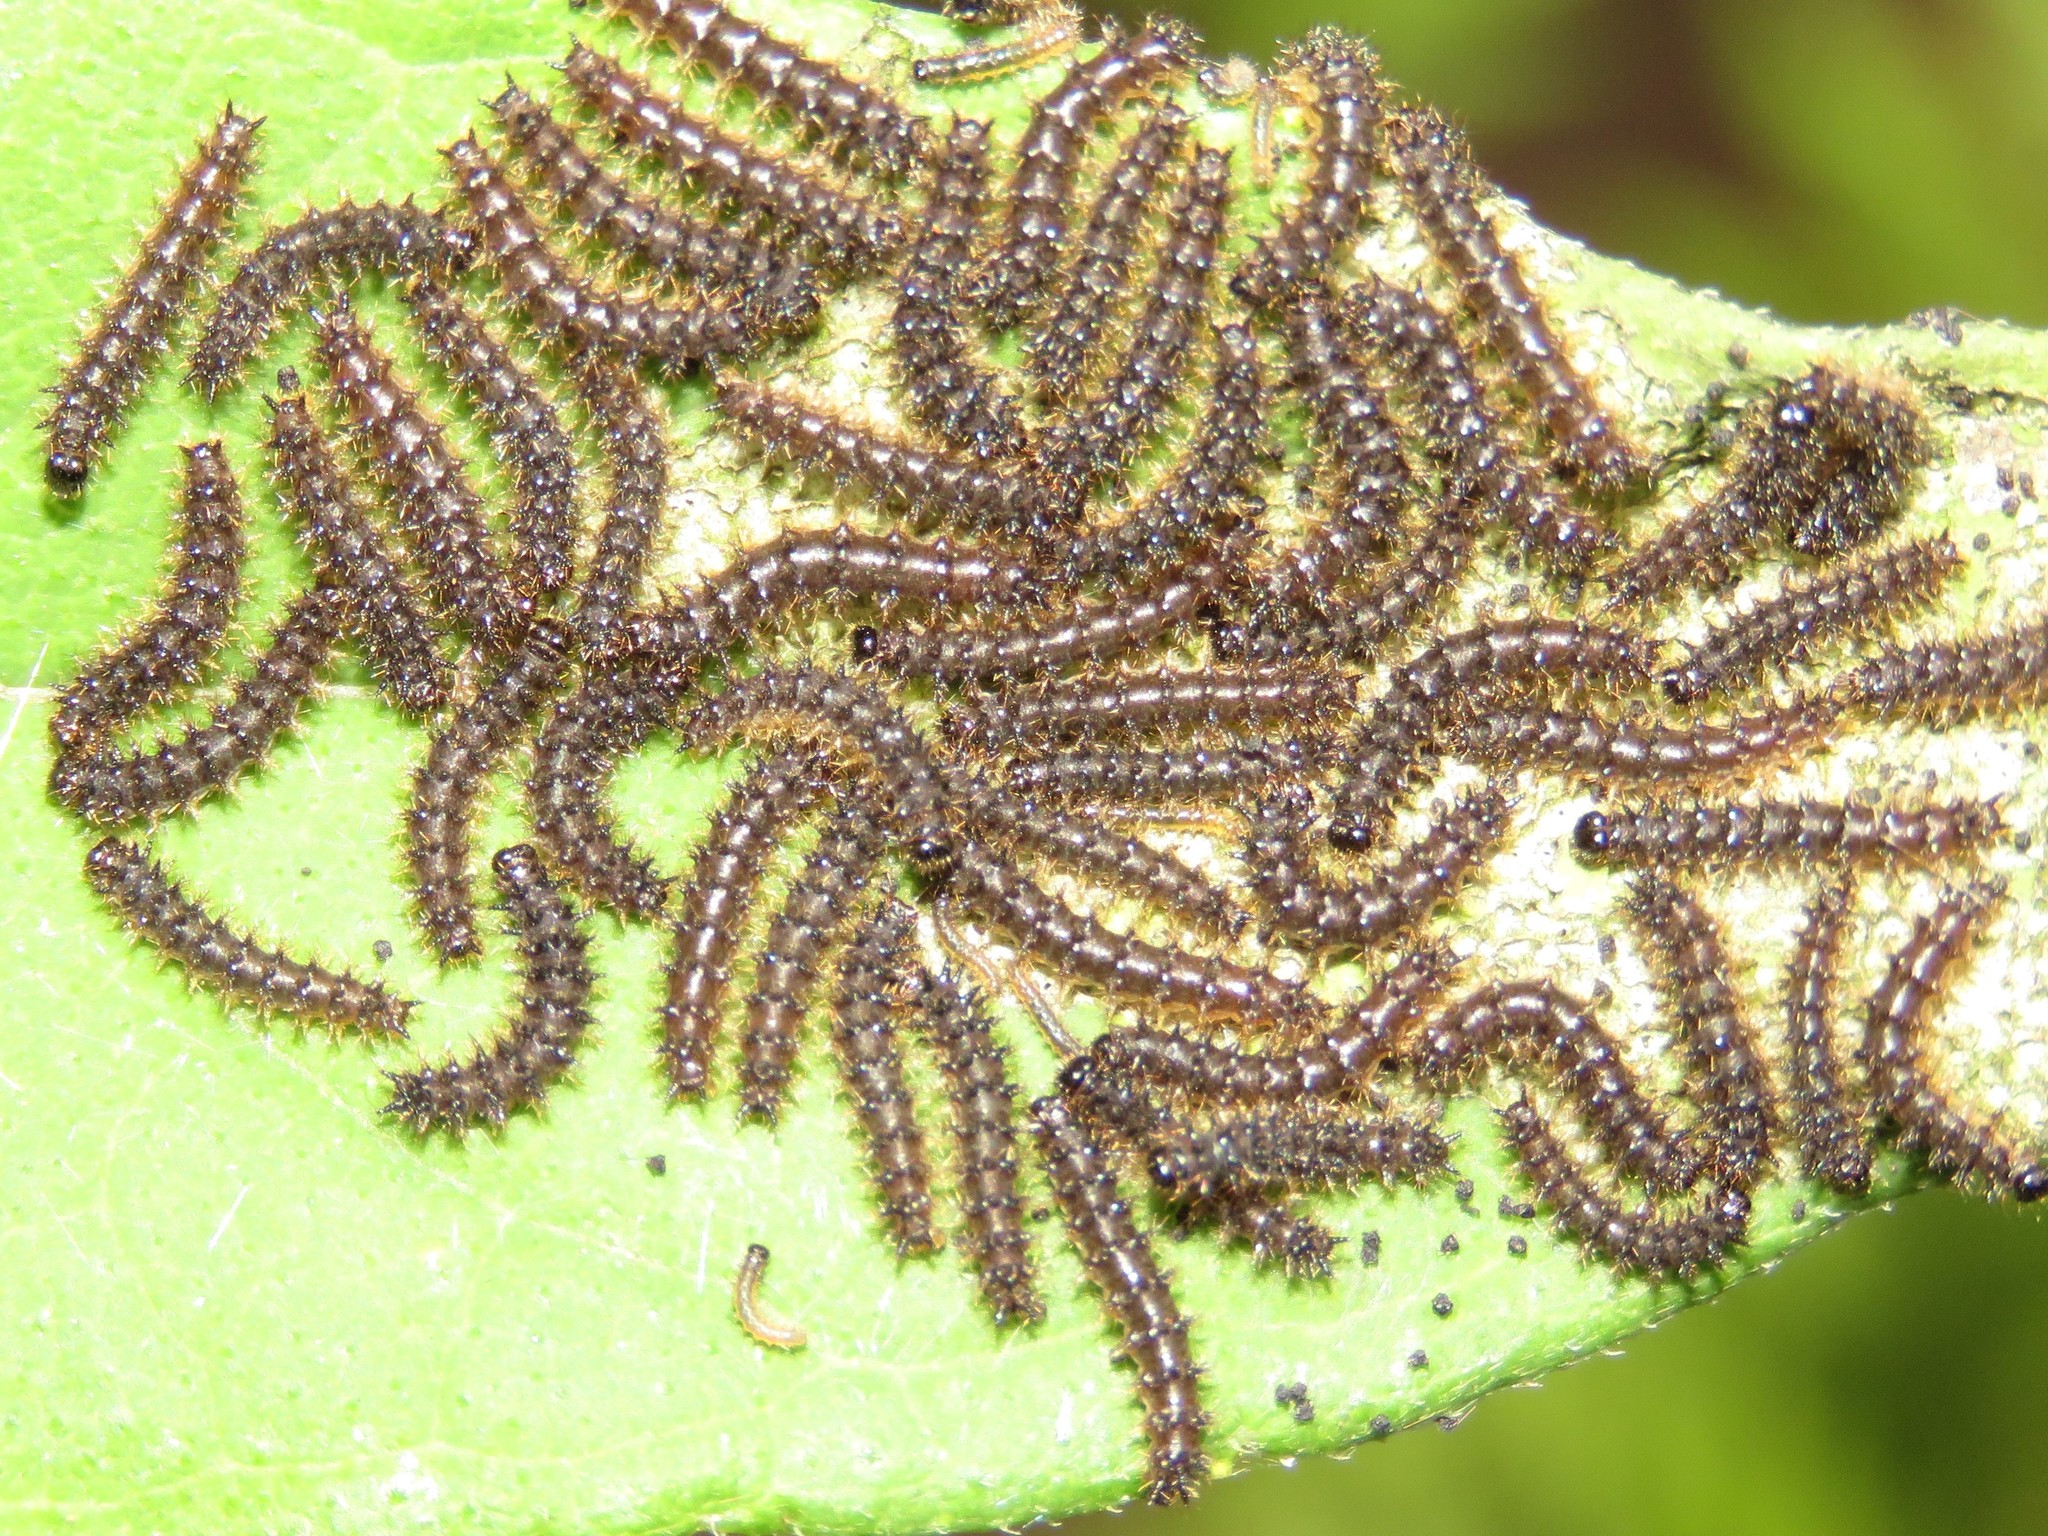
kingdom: Animalia
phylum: Arthropoda
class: Insecta
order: Lepidoptera
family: Nymphalidae
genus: Chlosyne
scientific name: Chlosyne nycteis
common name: Silvery checkerspot
